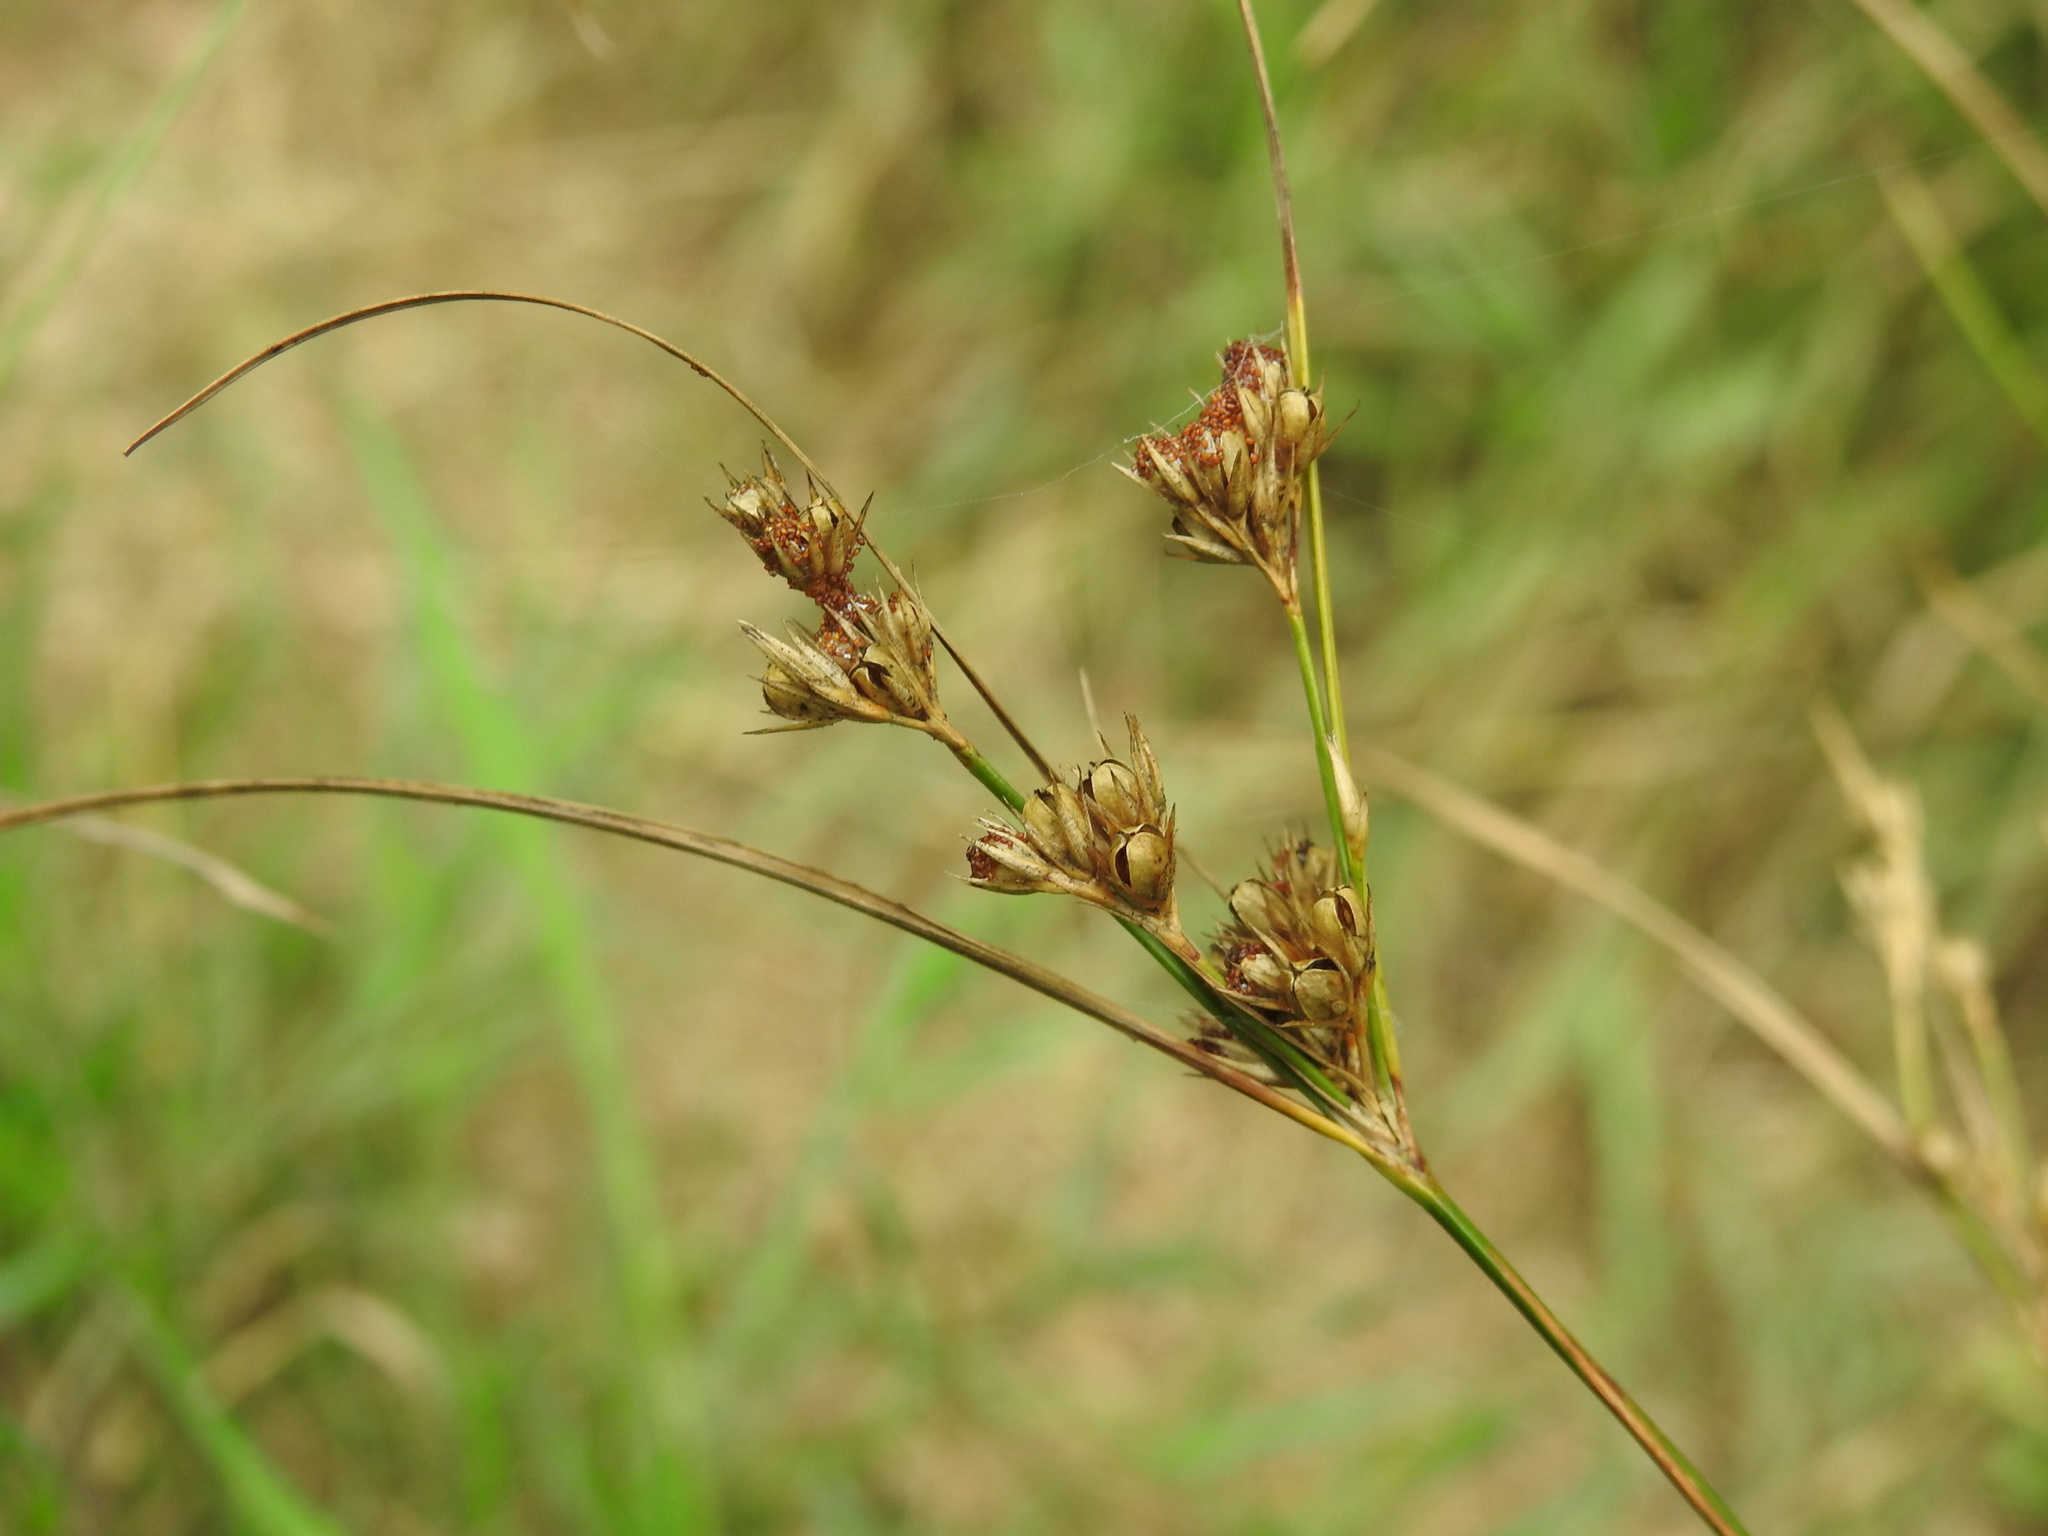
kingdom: Plantae
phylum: Tracheophyta
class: Liliopsida
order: Poales
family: Juncaceae
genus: Juncus
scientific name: Juncus tenuis
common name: Slender rush
